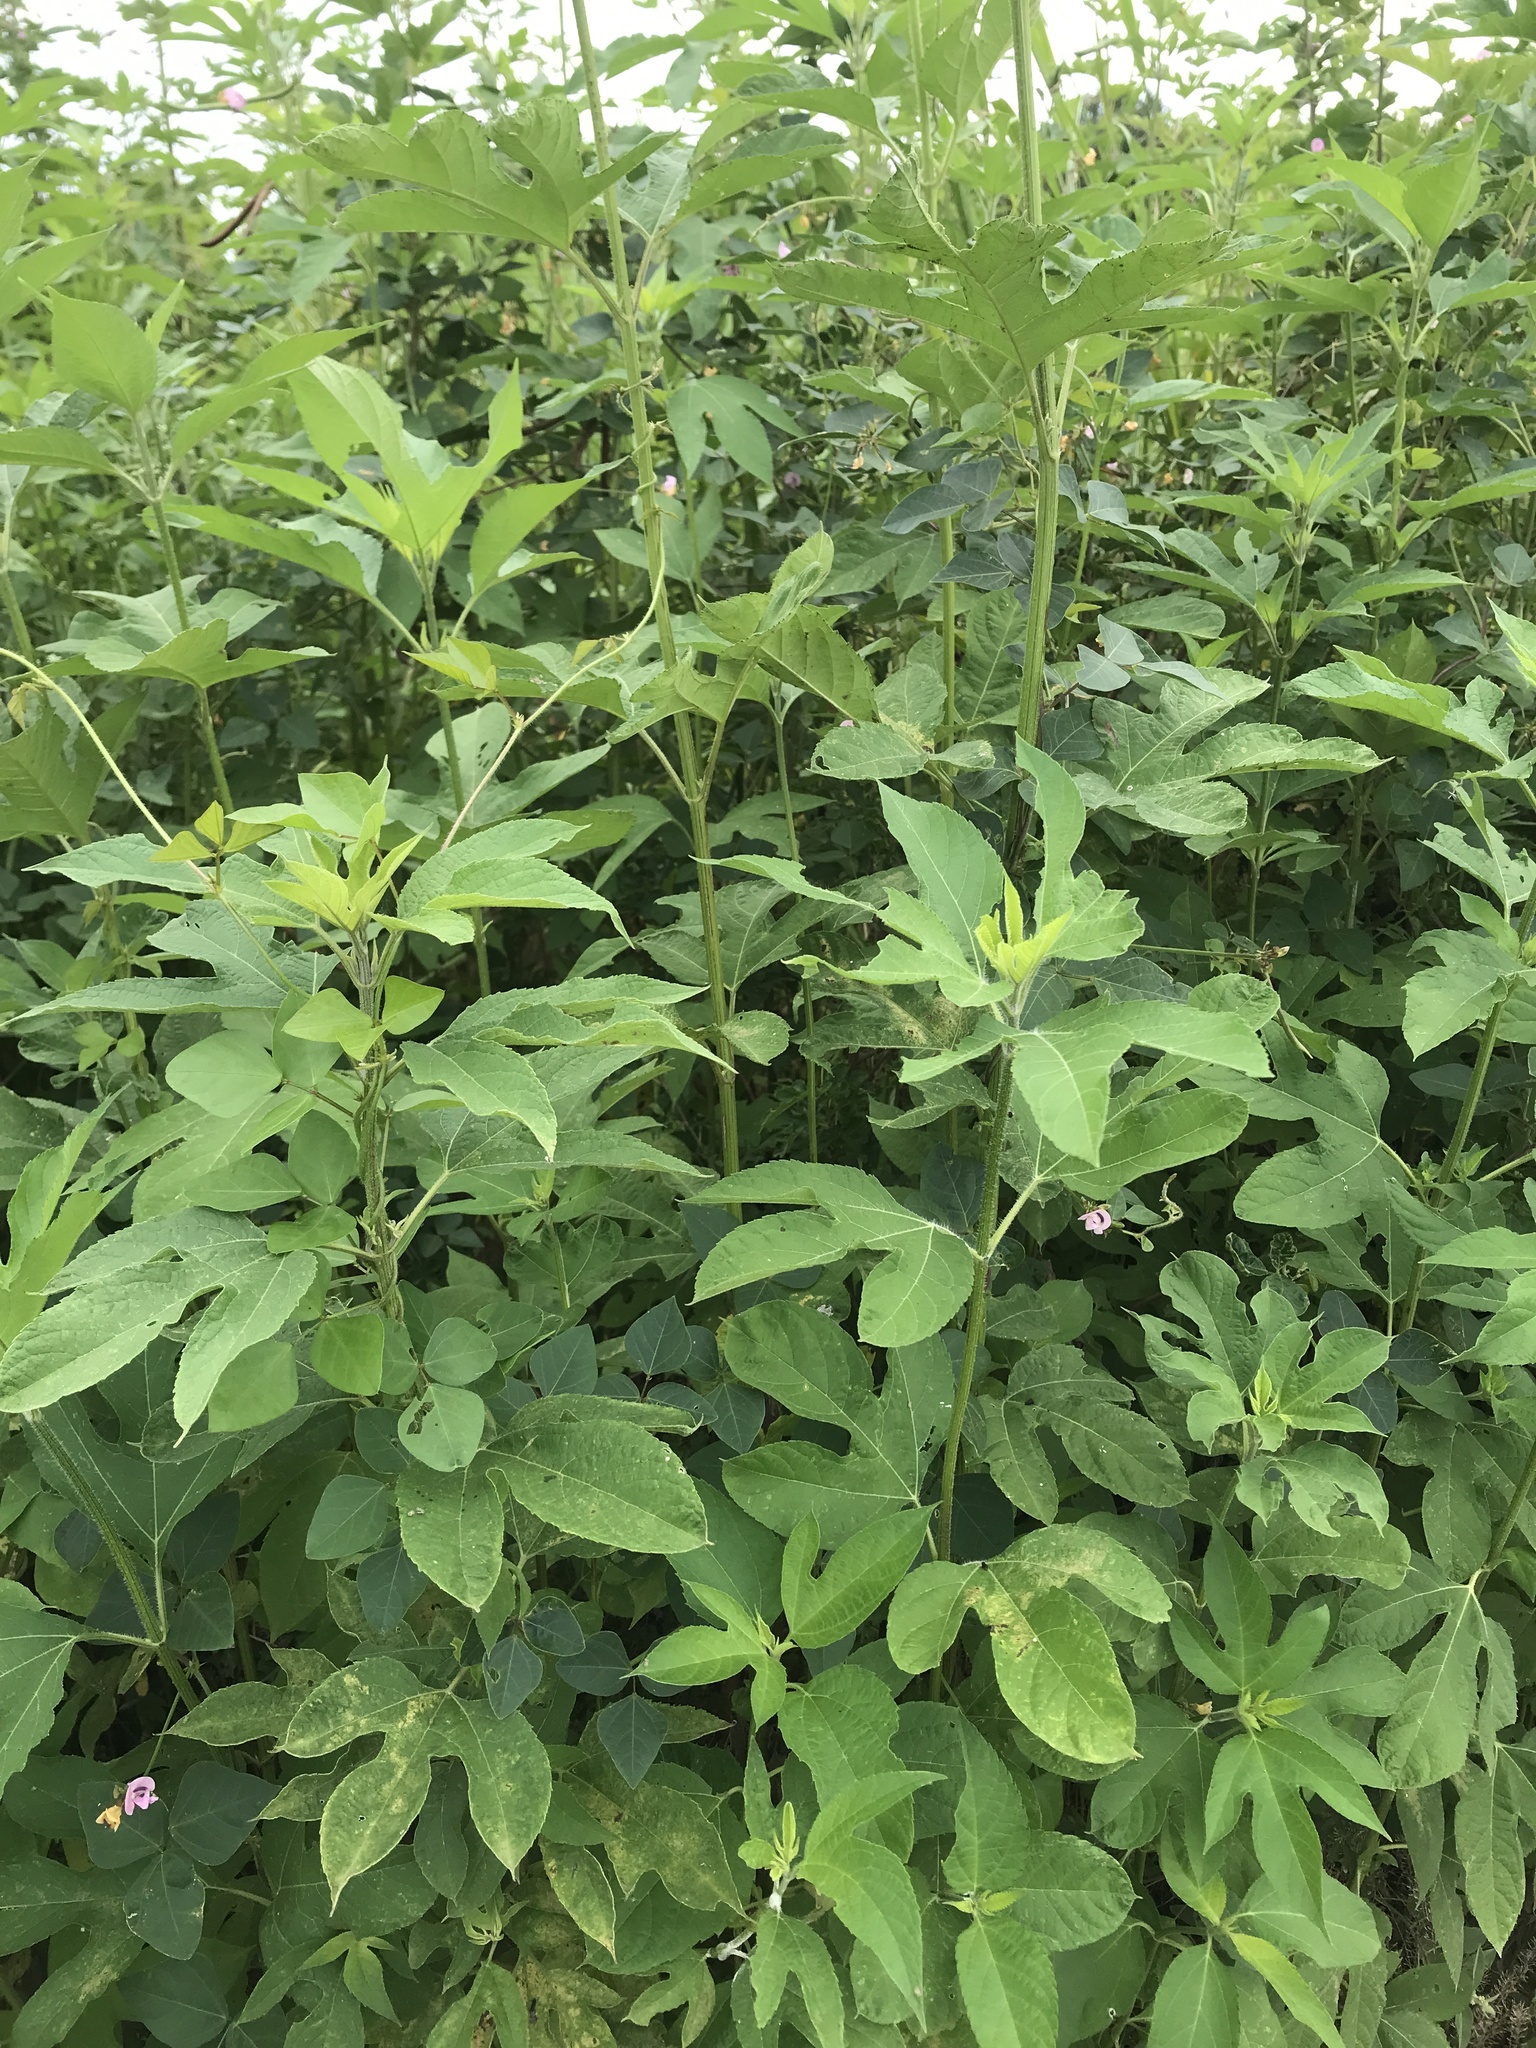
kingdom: Plantae
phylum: Tracheophyta
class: Magnoliopsida
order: Asterales
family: Asteraceae
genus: Ambrosia
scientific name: Ambrosia trifida
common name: Giant ragweed
